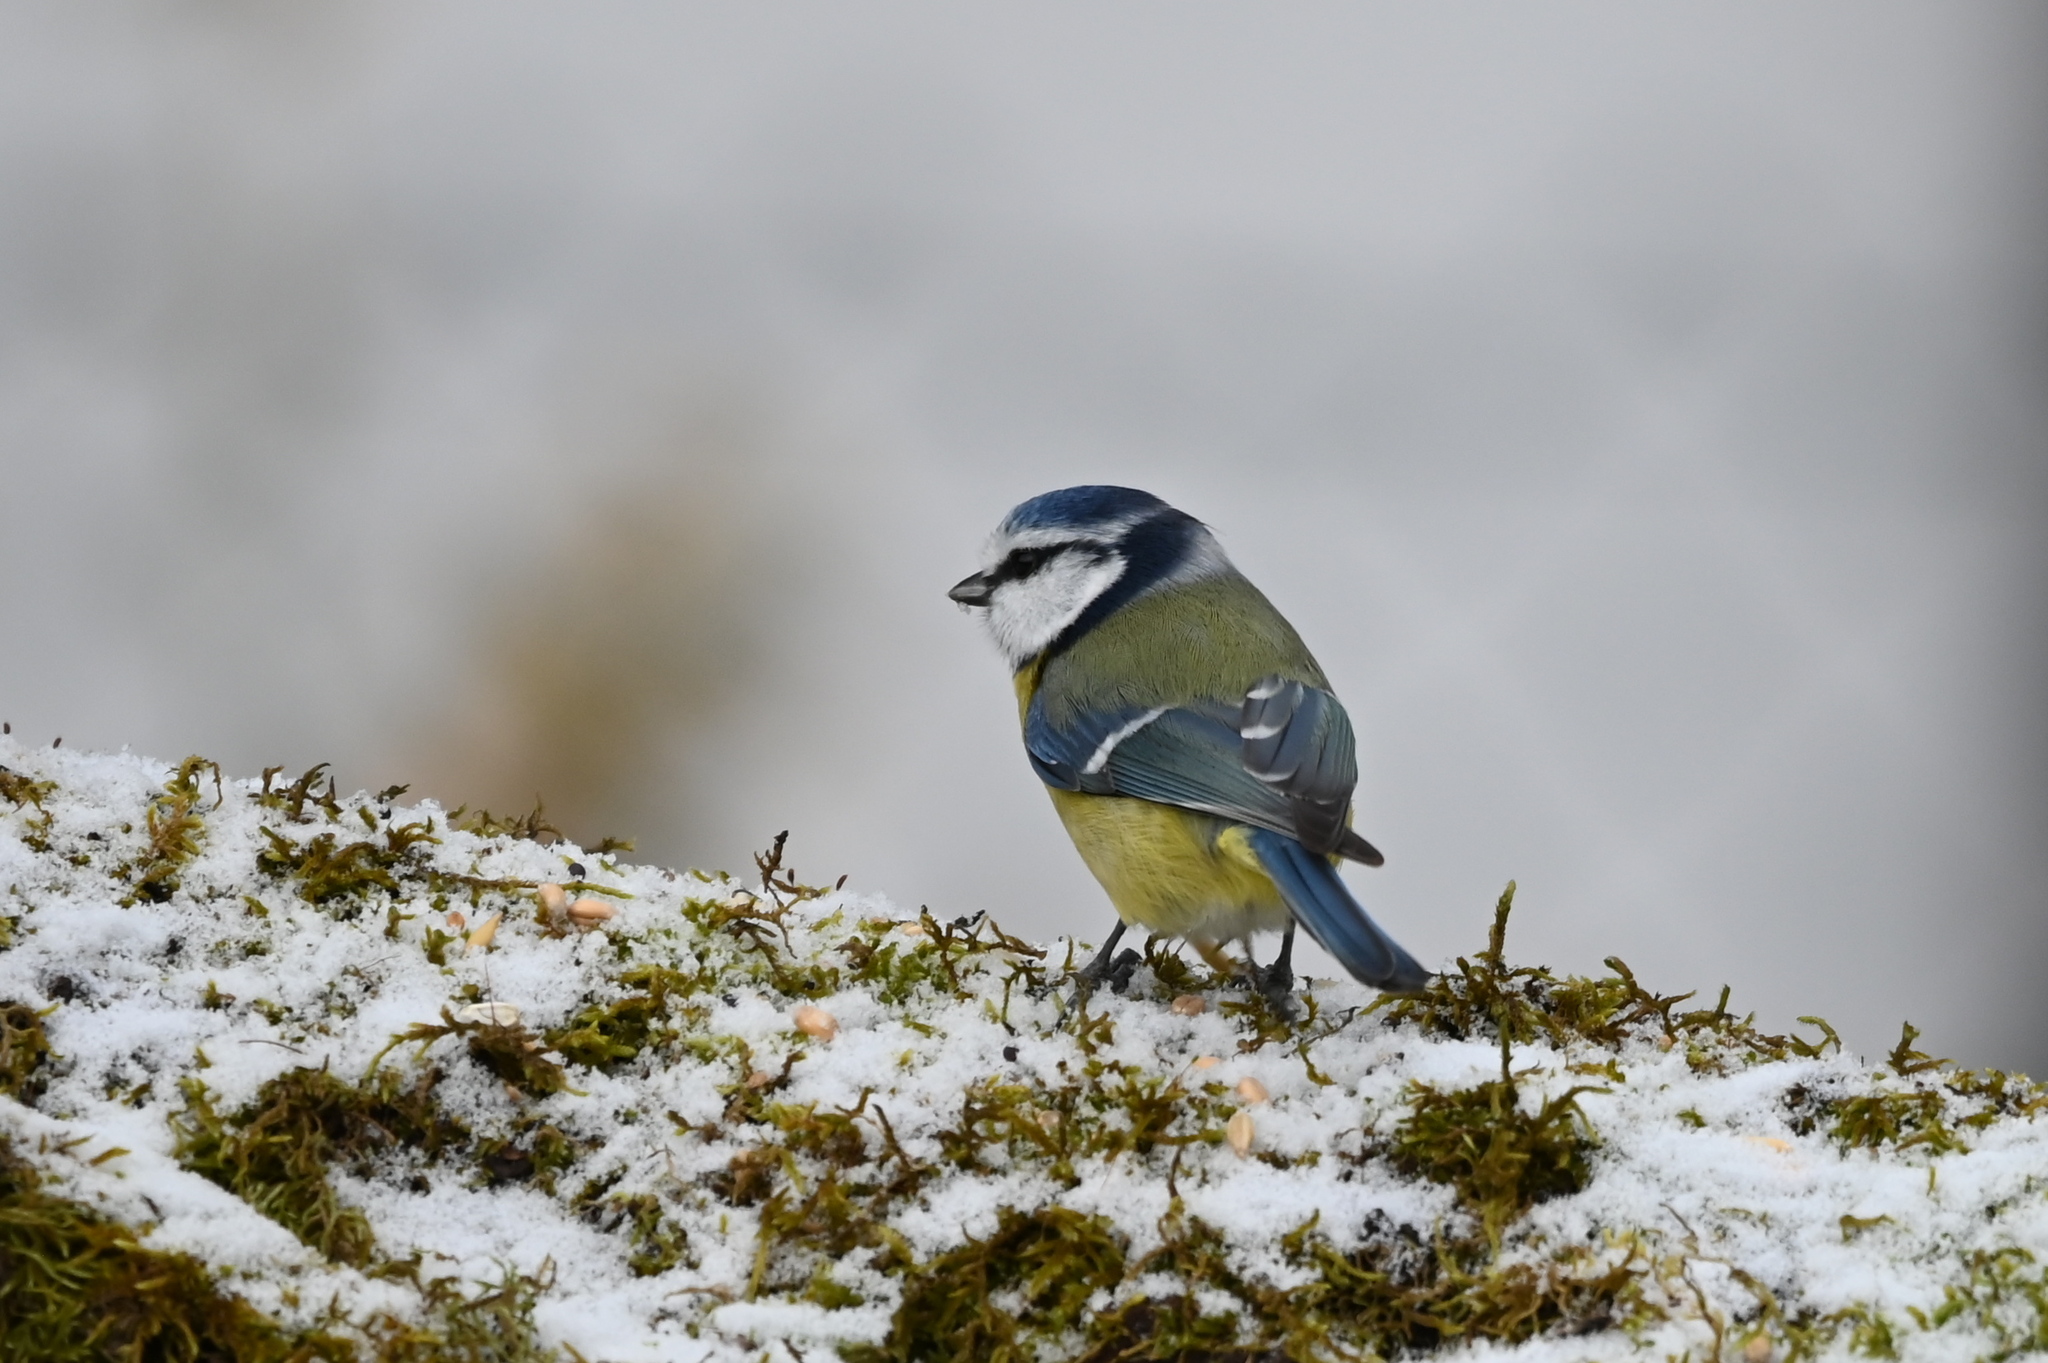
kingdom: Animalia
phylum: Chordata
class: Aves
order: Passeriformes
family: Paridae
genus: Cyanistes
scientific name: Cyanistes caeruleus
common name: Eurasian blue tit
